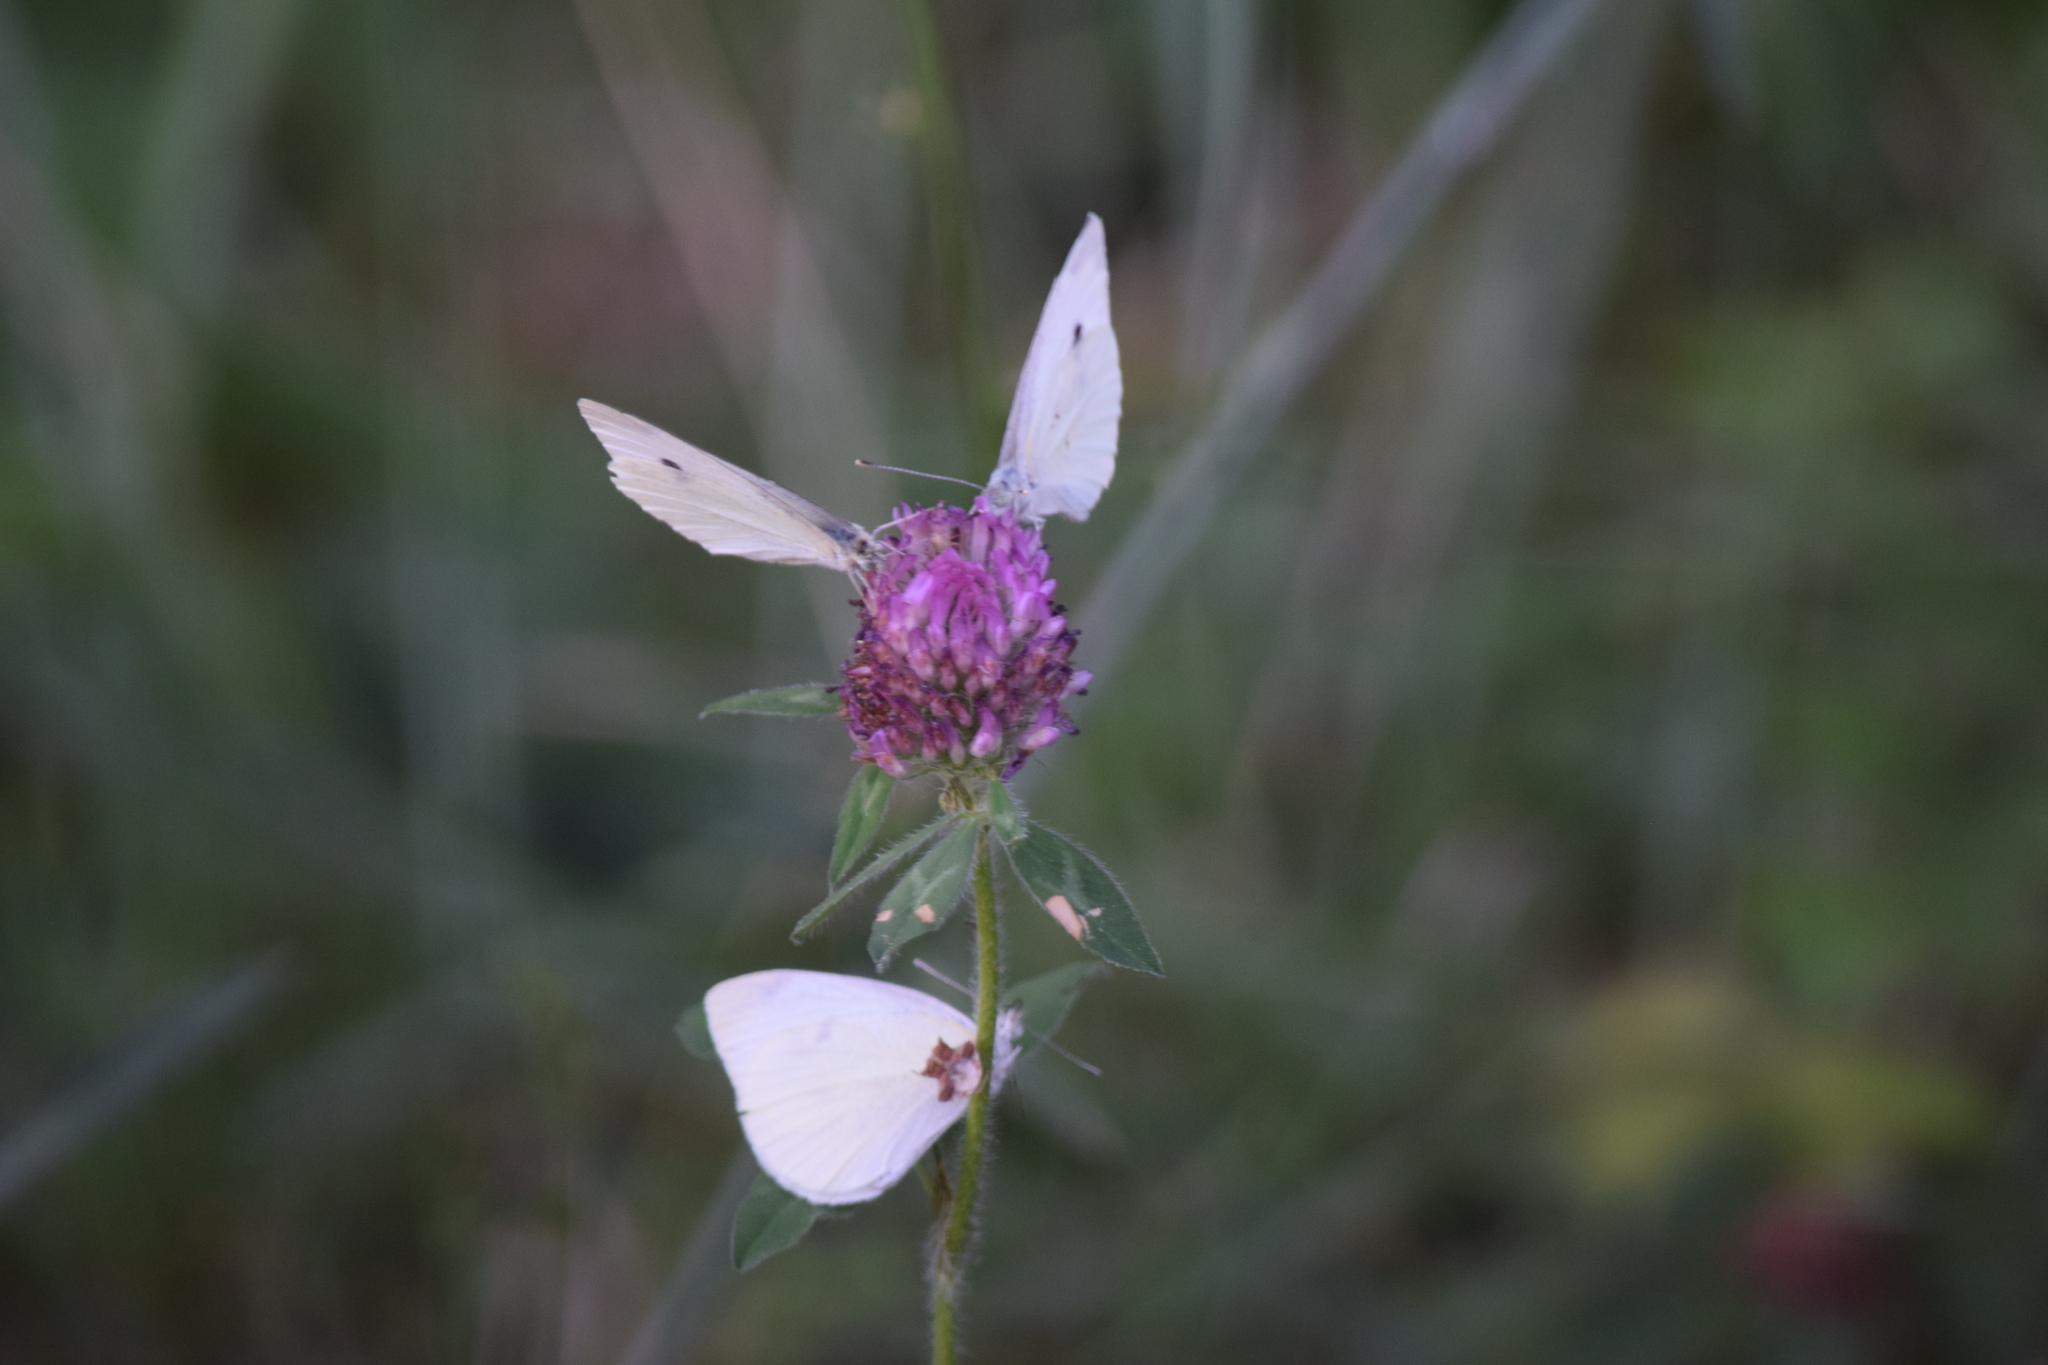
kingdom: Animalia
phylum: Arthropoda
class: Insecta
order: Lepidoptera
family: Pieridae
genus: Pieris
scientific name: Pieris rapae
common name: Small white
